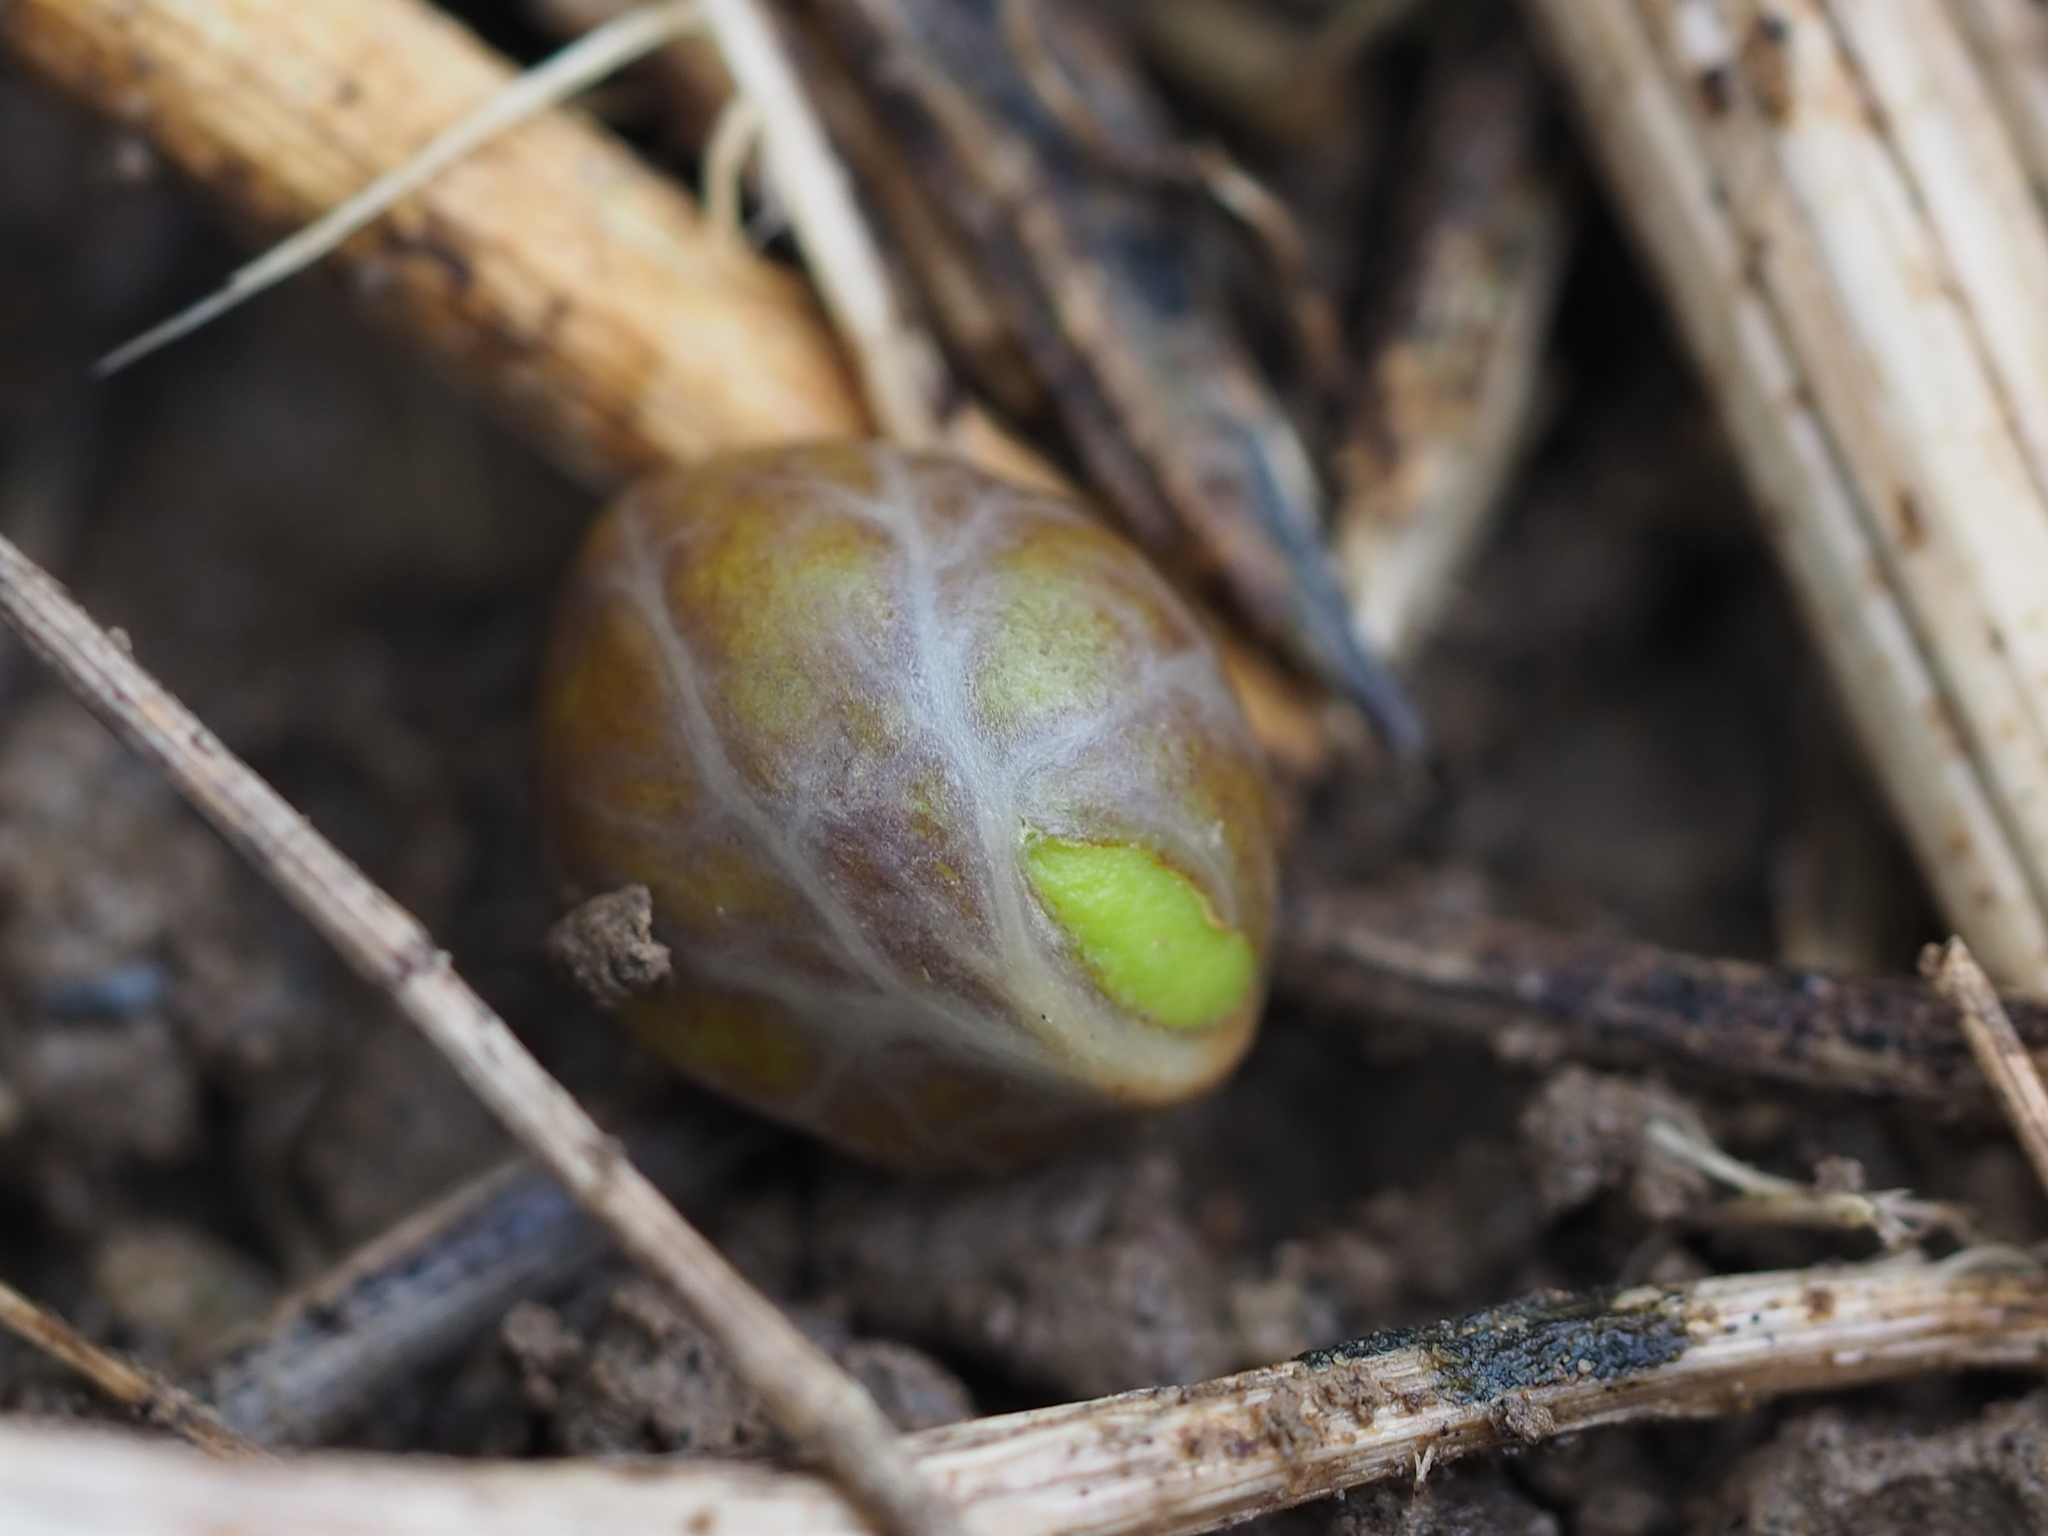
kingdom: Plantae
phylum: Tracheophyta
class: Magnoliopsida
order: Sapindales
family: Meliaceae
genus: Aglaia
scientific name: Aglaia elaeagnoidea
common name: Droopyleaf
